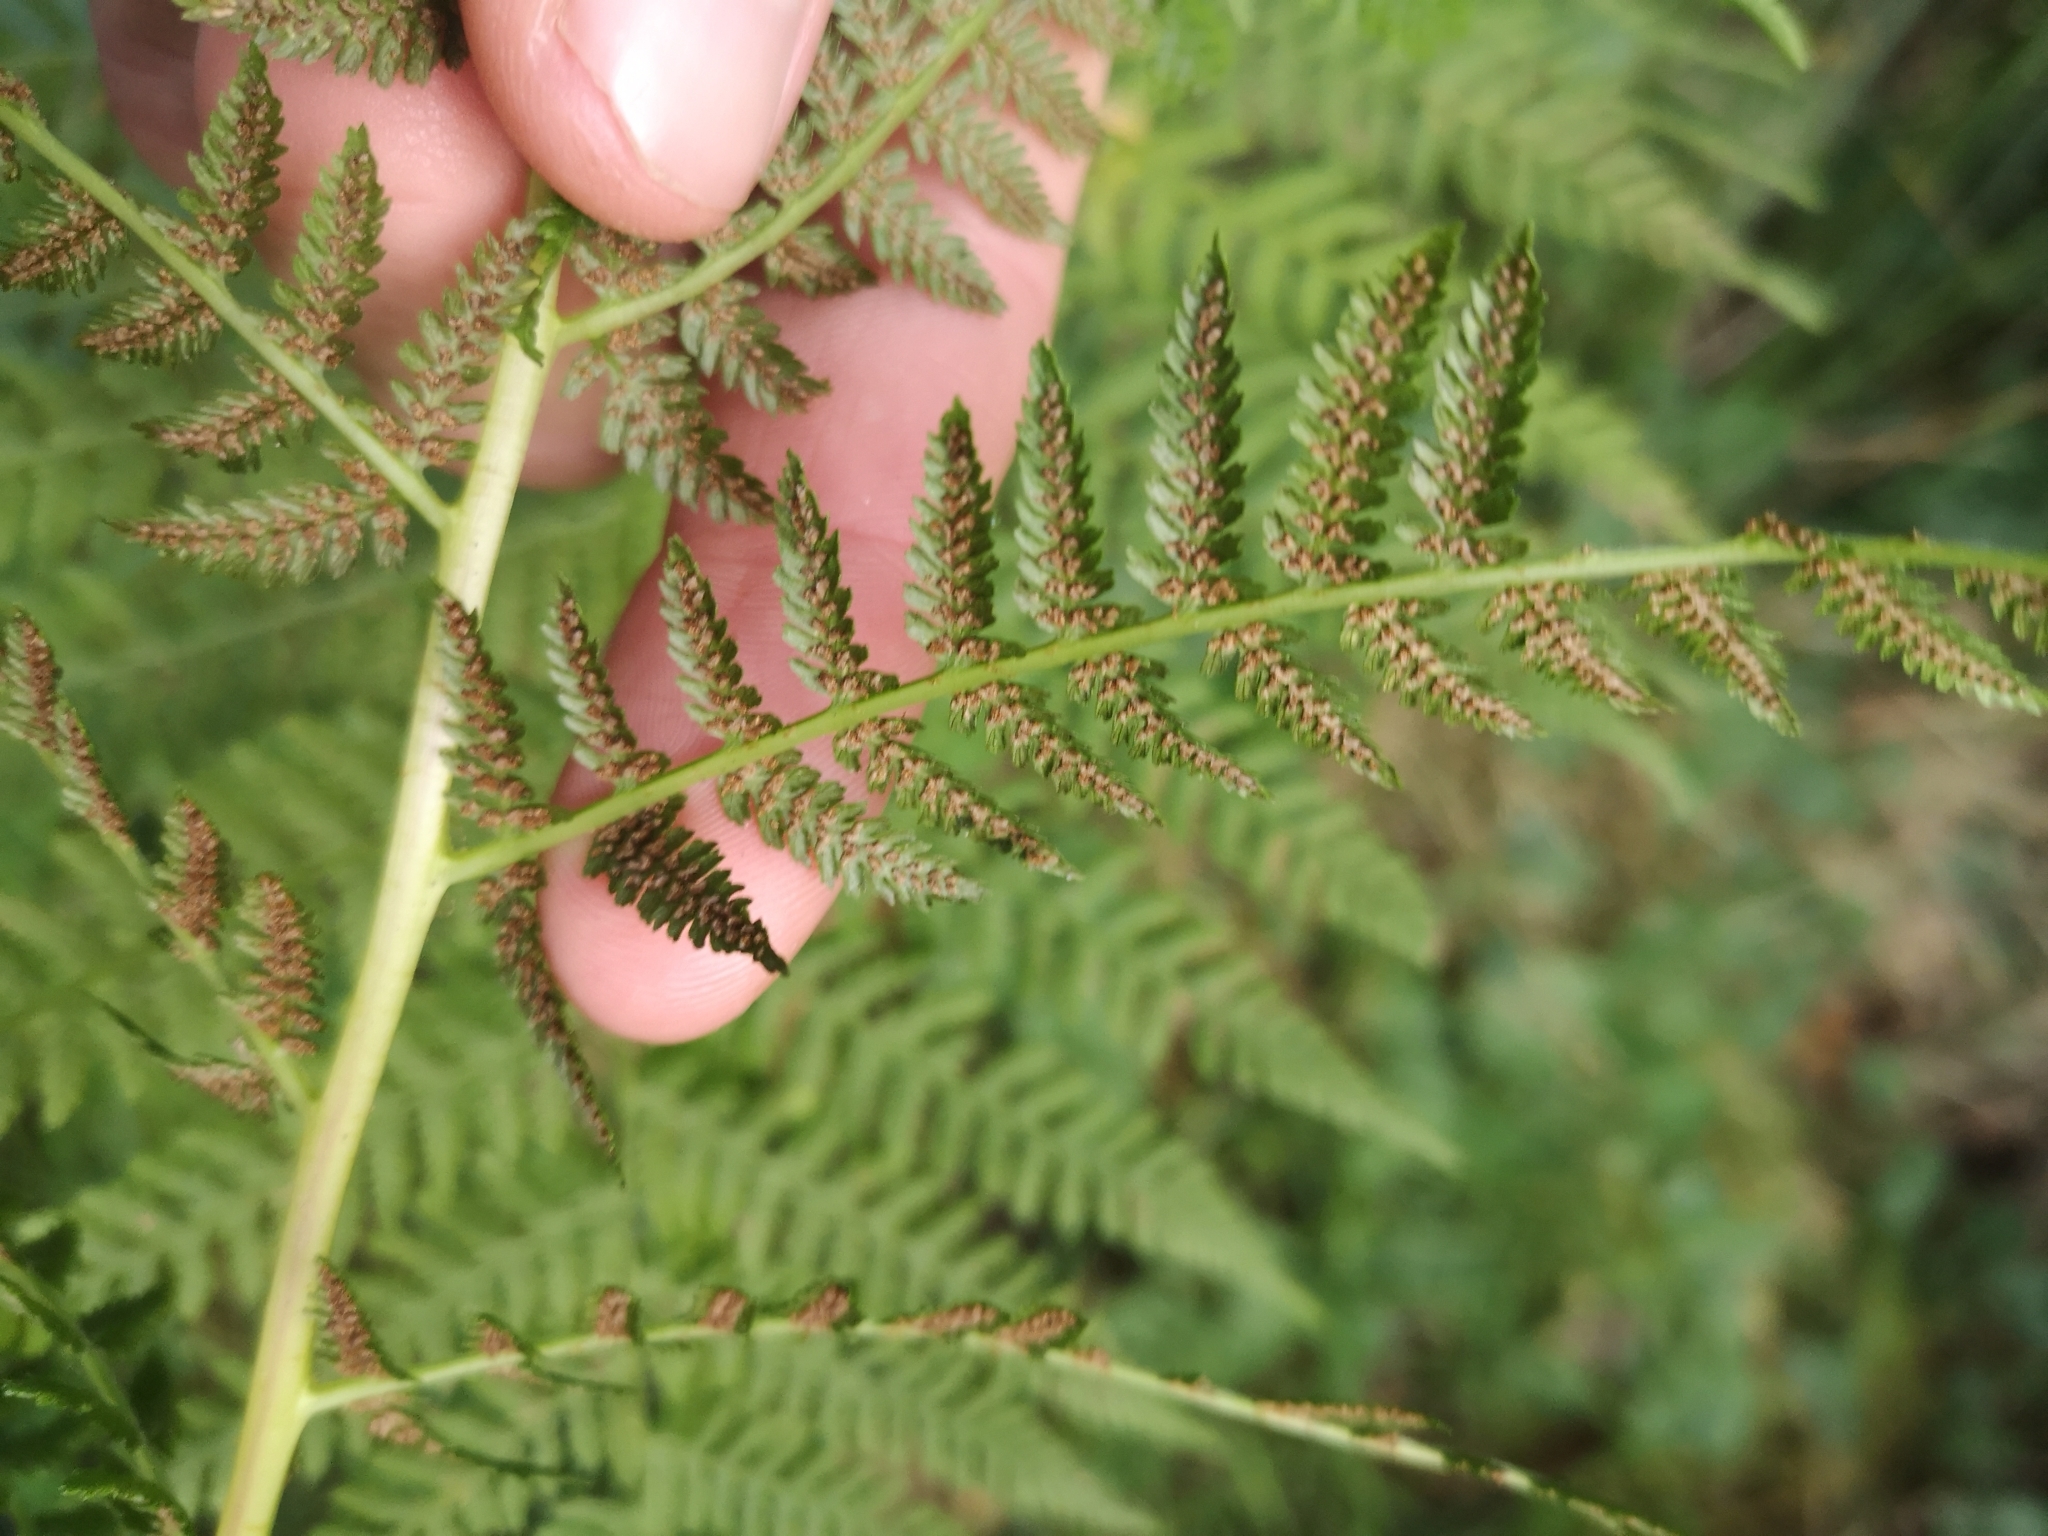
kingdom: Plantae
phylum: Tracheophyta
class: Polypodiopsida
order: Polypodiales
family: Athyriaceae
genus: Athyrium
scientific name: Athyrium filix-femina
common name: Lady fern
